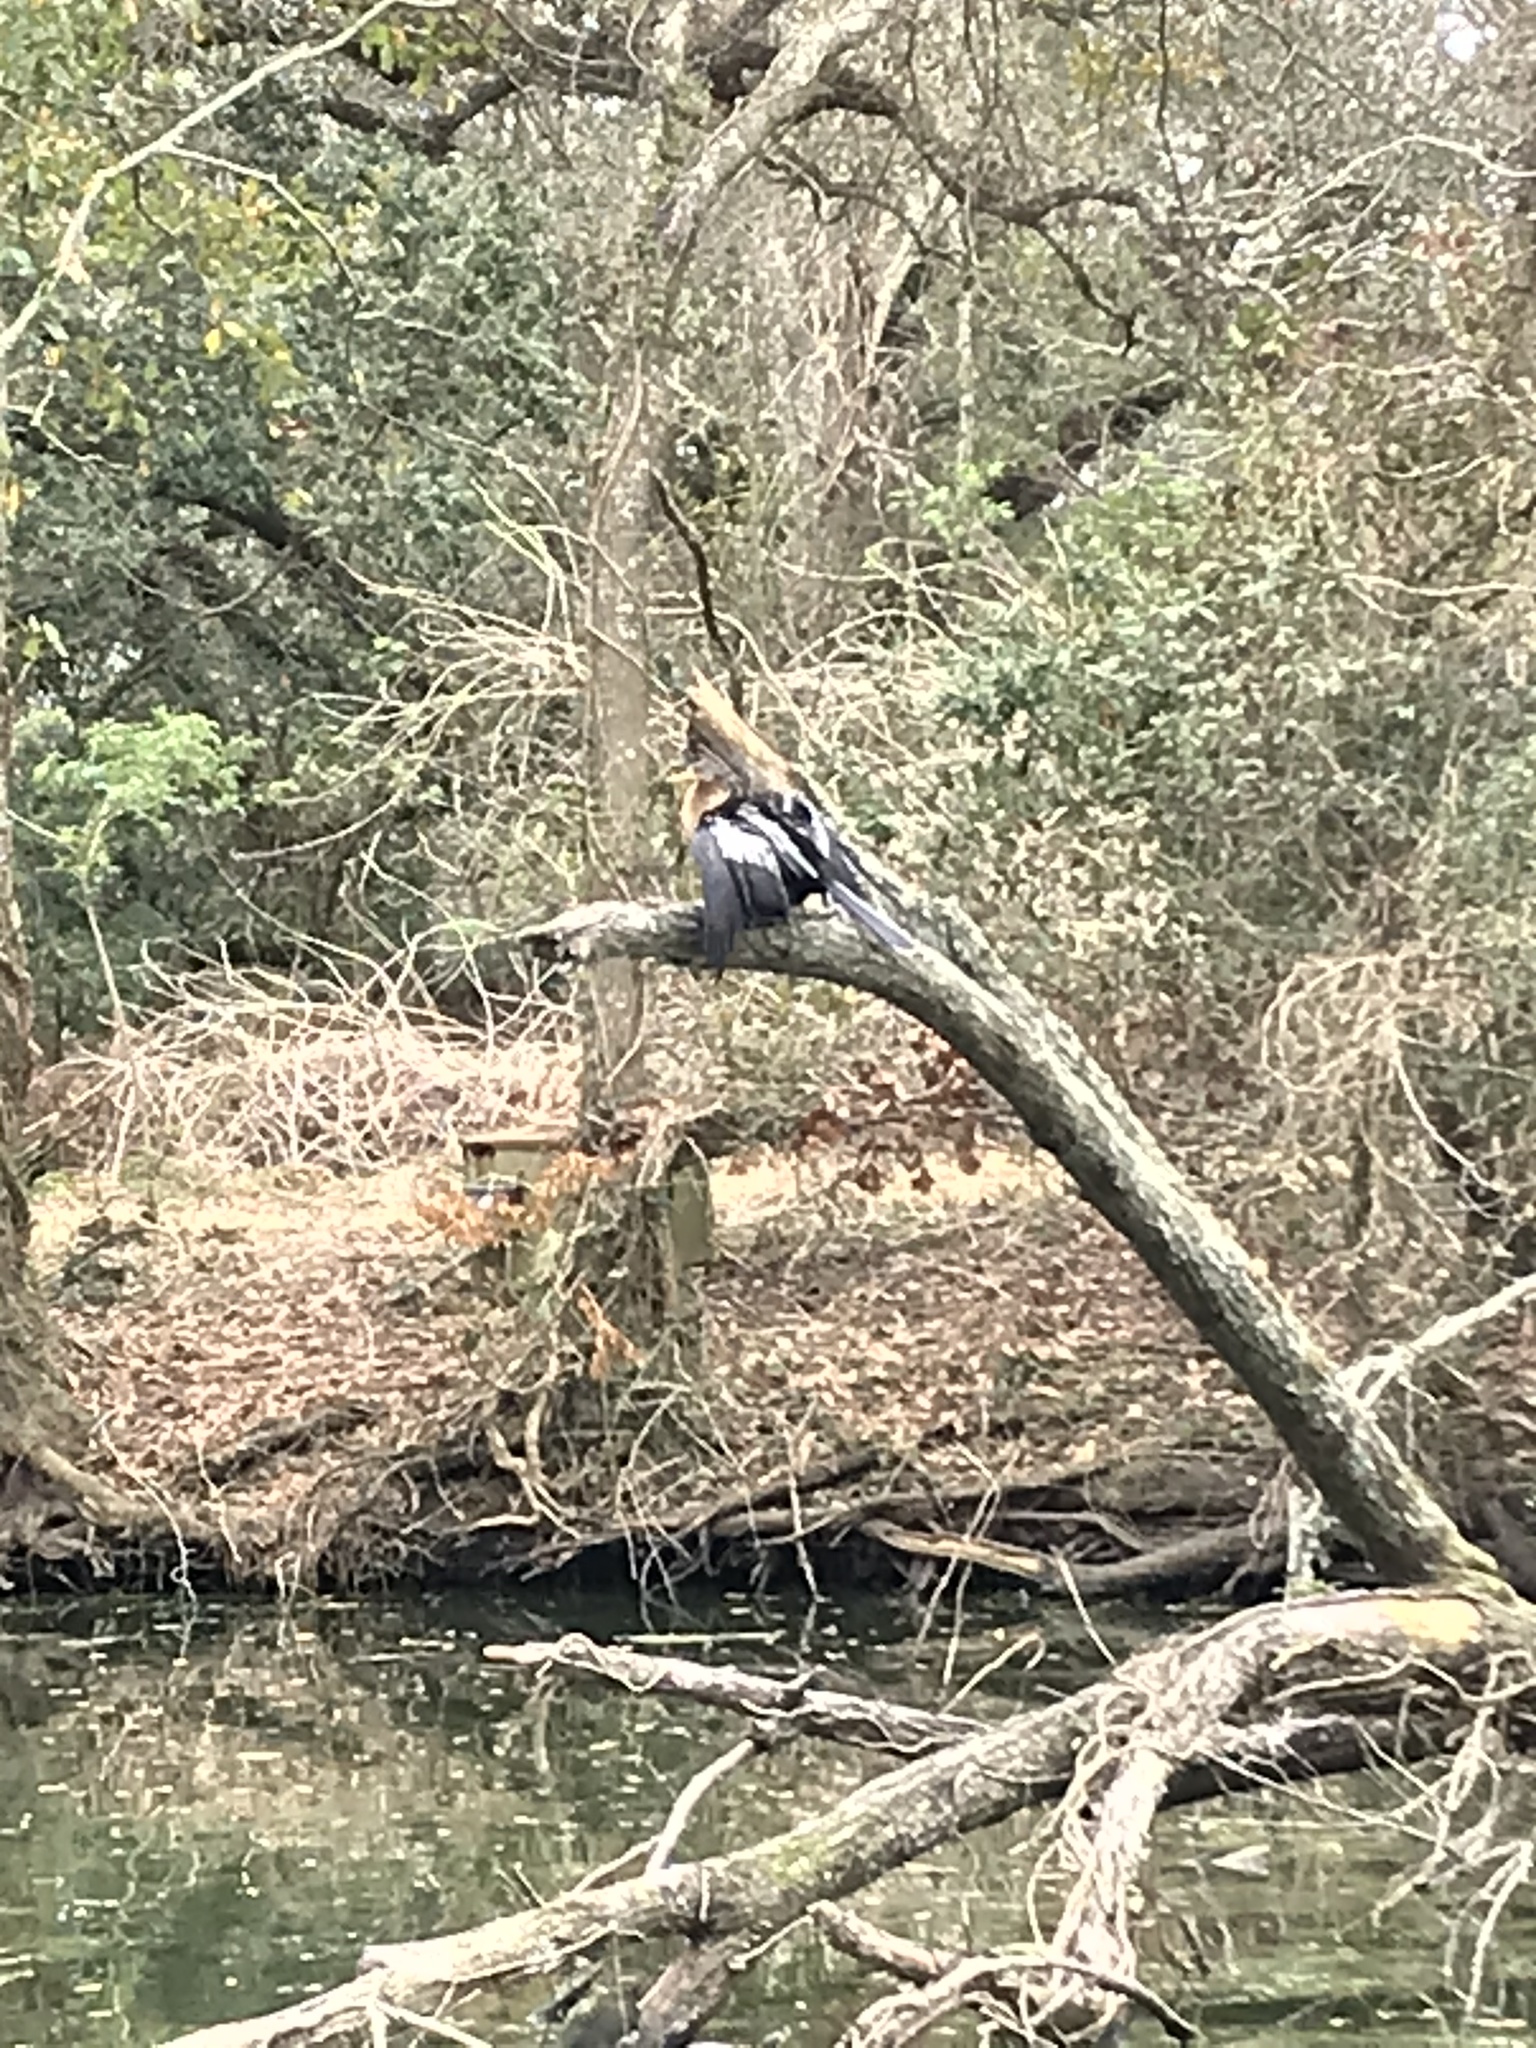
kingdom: Animalia
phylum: Chordata
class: Aves
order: Suliformes
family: Anhingidae
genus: Anhinga
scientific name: Anhinga anhinga
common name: Anhinga
